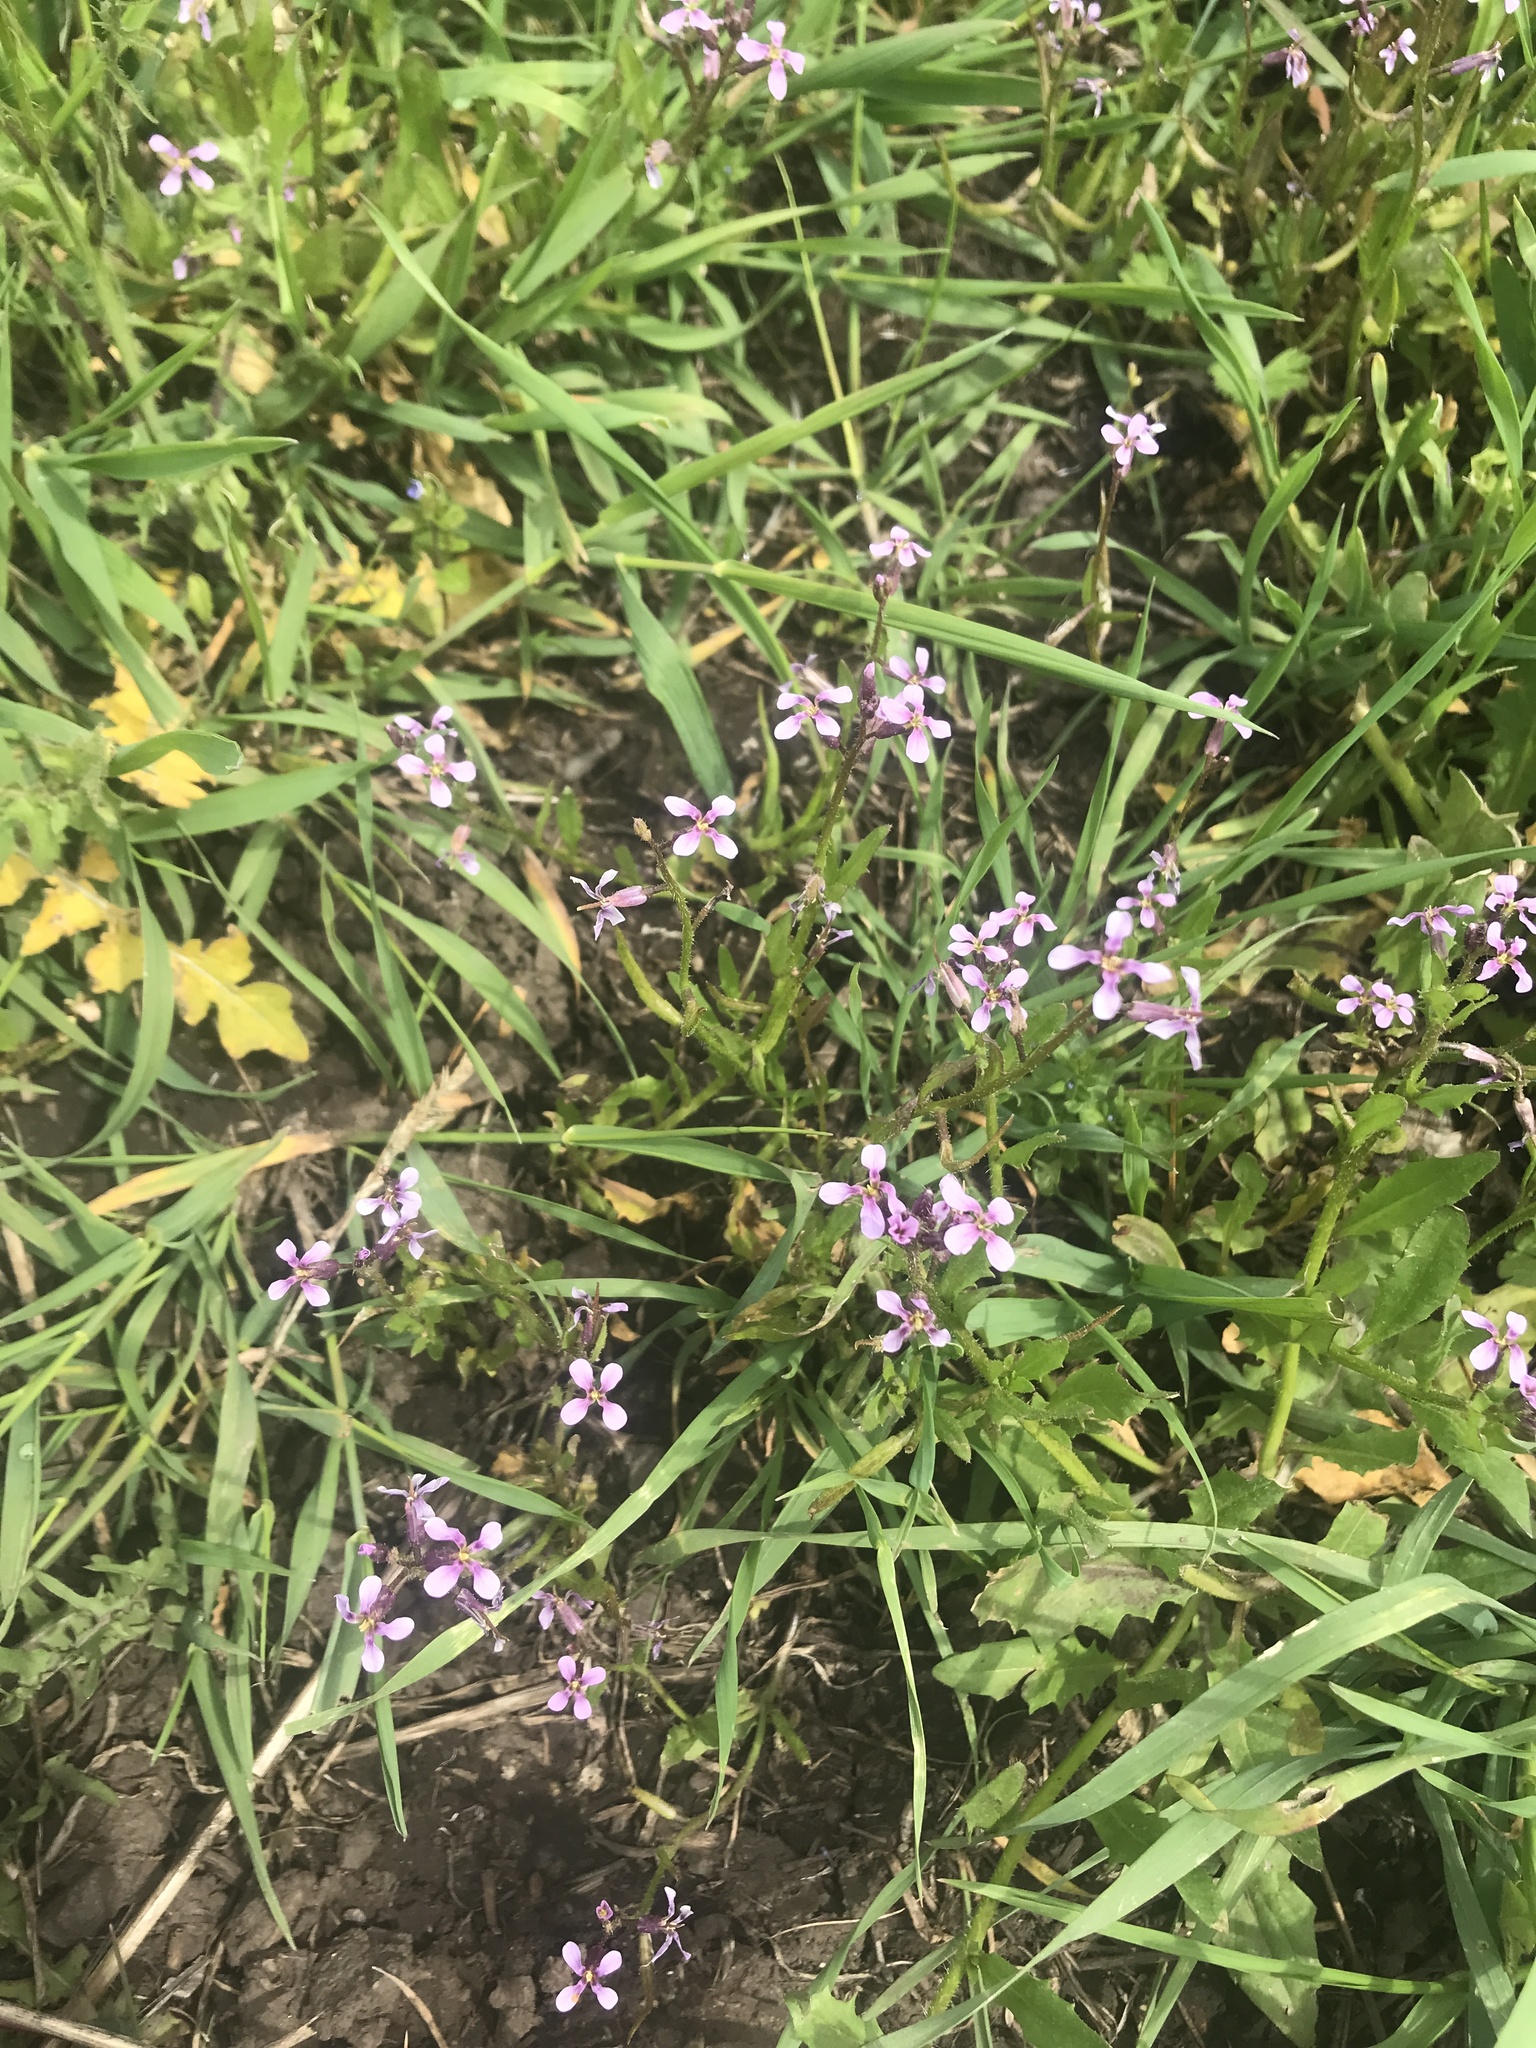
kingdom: Plantae
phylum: Tracheophyta
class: Magnoliopsida
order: Brassicales
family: Brassicaceae
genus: Chorispora
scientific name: Chorispora tenella
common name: Crossflower
